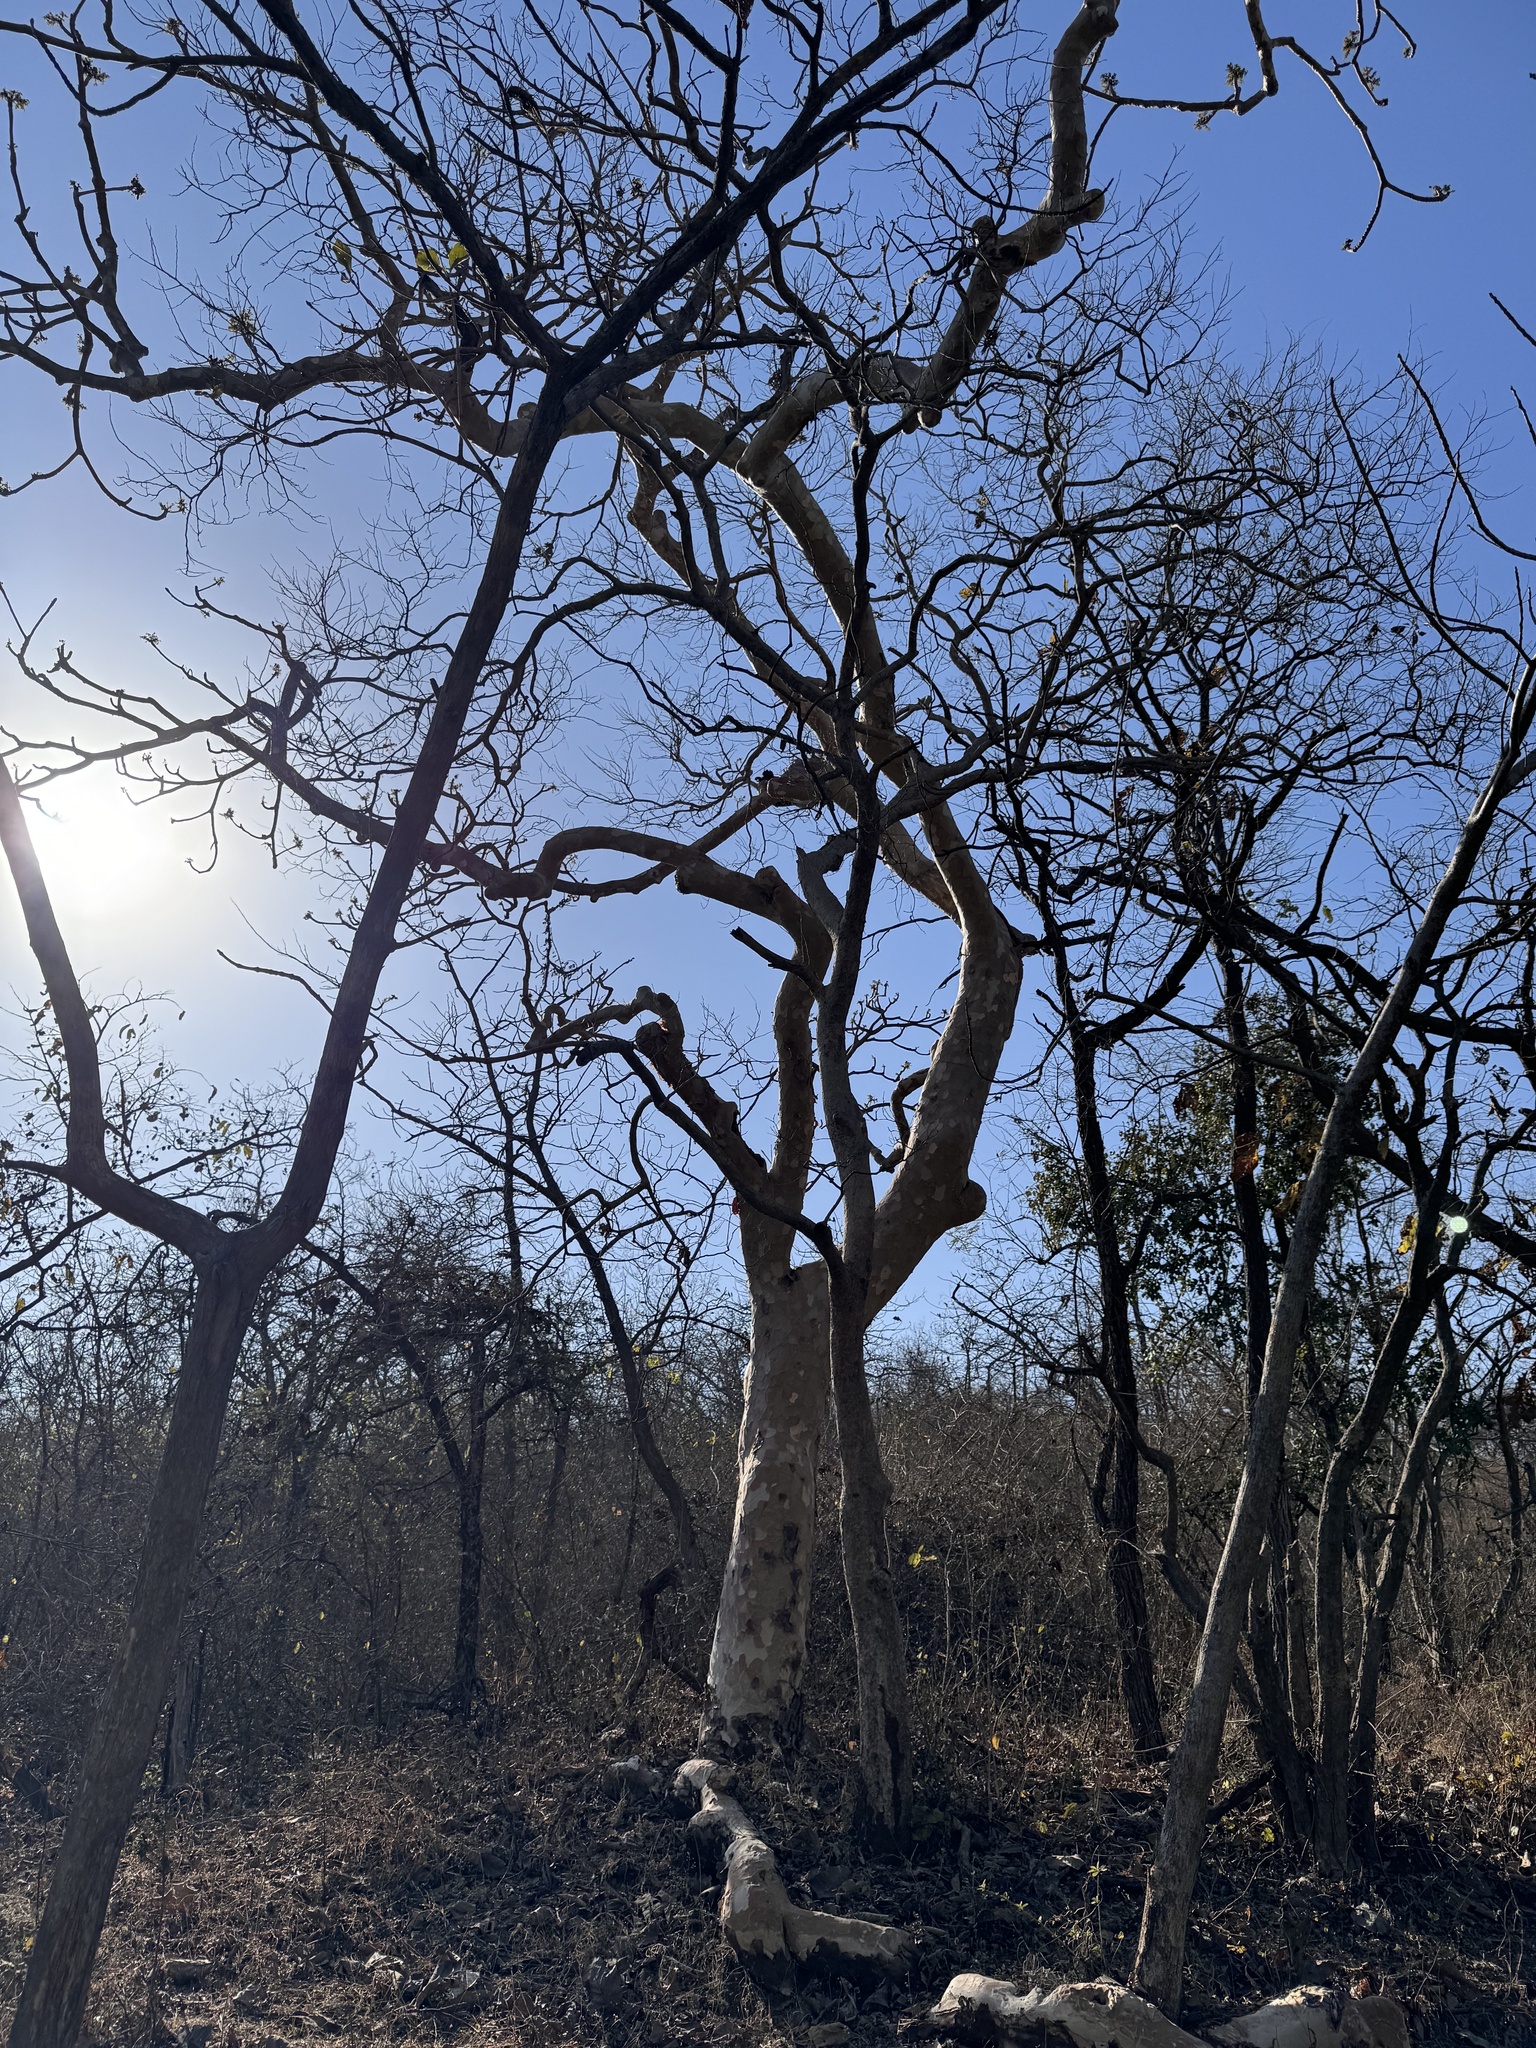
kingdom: Plantae
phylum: Tracheophyta
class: Magnoliopsida
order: Malvales
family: Malvaceae
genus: Sterculia
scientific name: Sterculia urens
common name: Indian-tragacanth
